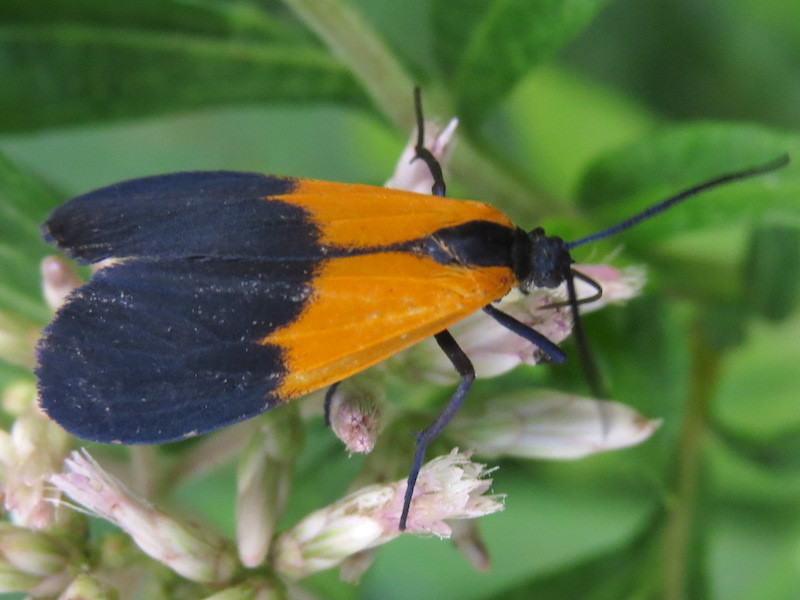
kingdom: Animalia
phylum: Arthropoda
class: Insecta
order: Lepidoptera
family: Erebidae
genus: Lycomorpha
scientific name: Lycomorpha pholus
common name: Black-and-yellow lichen moth
